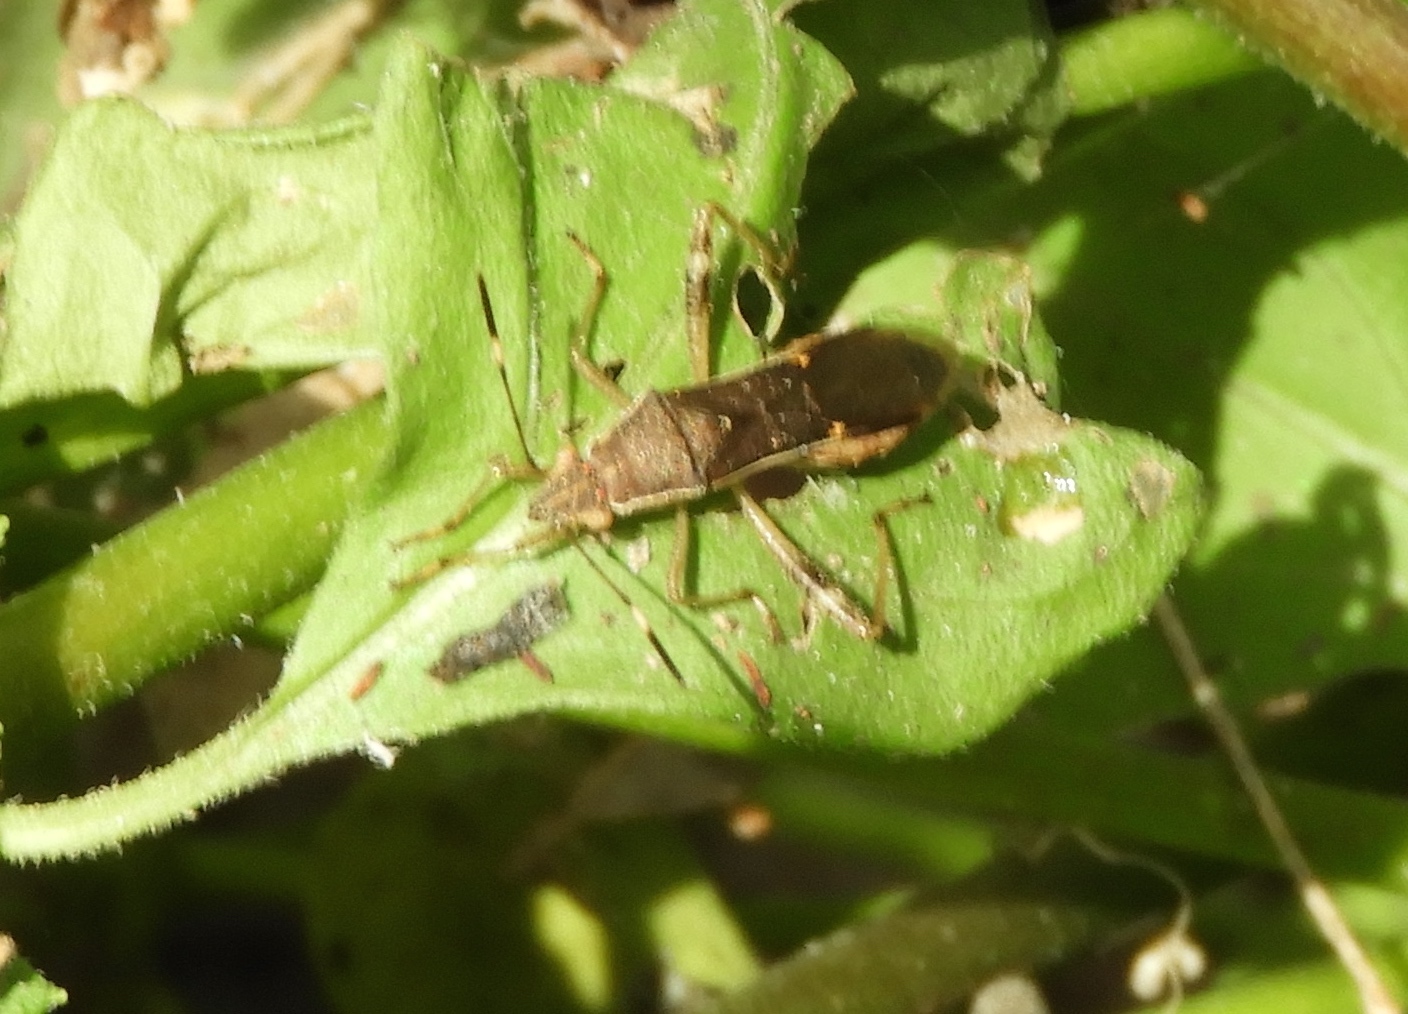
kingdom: Animalia
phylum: Arthropoda
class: Insecta
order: Hemiptera
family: Alydidae
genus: Burtinus
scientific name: Burtinus notatipennis
